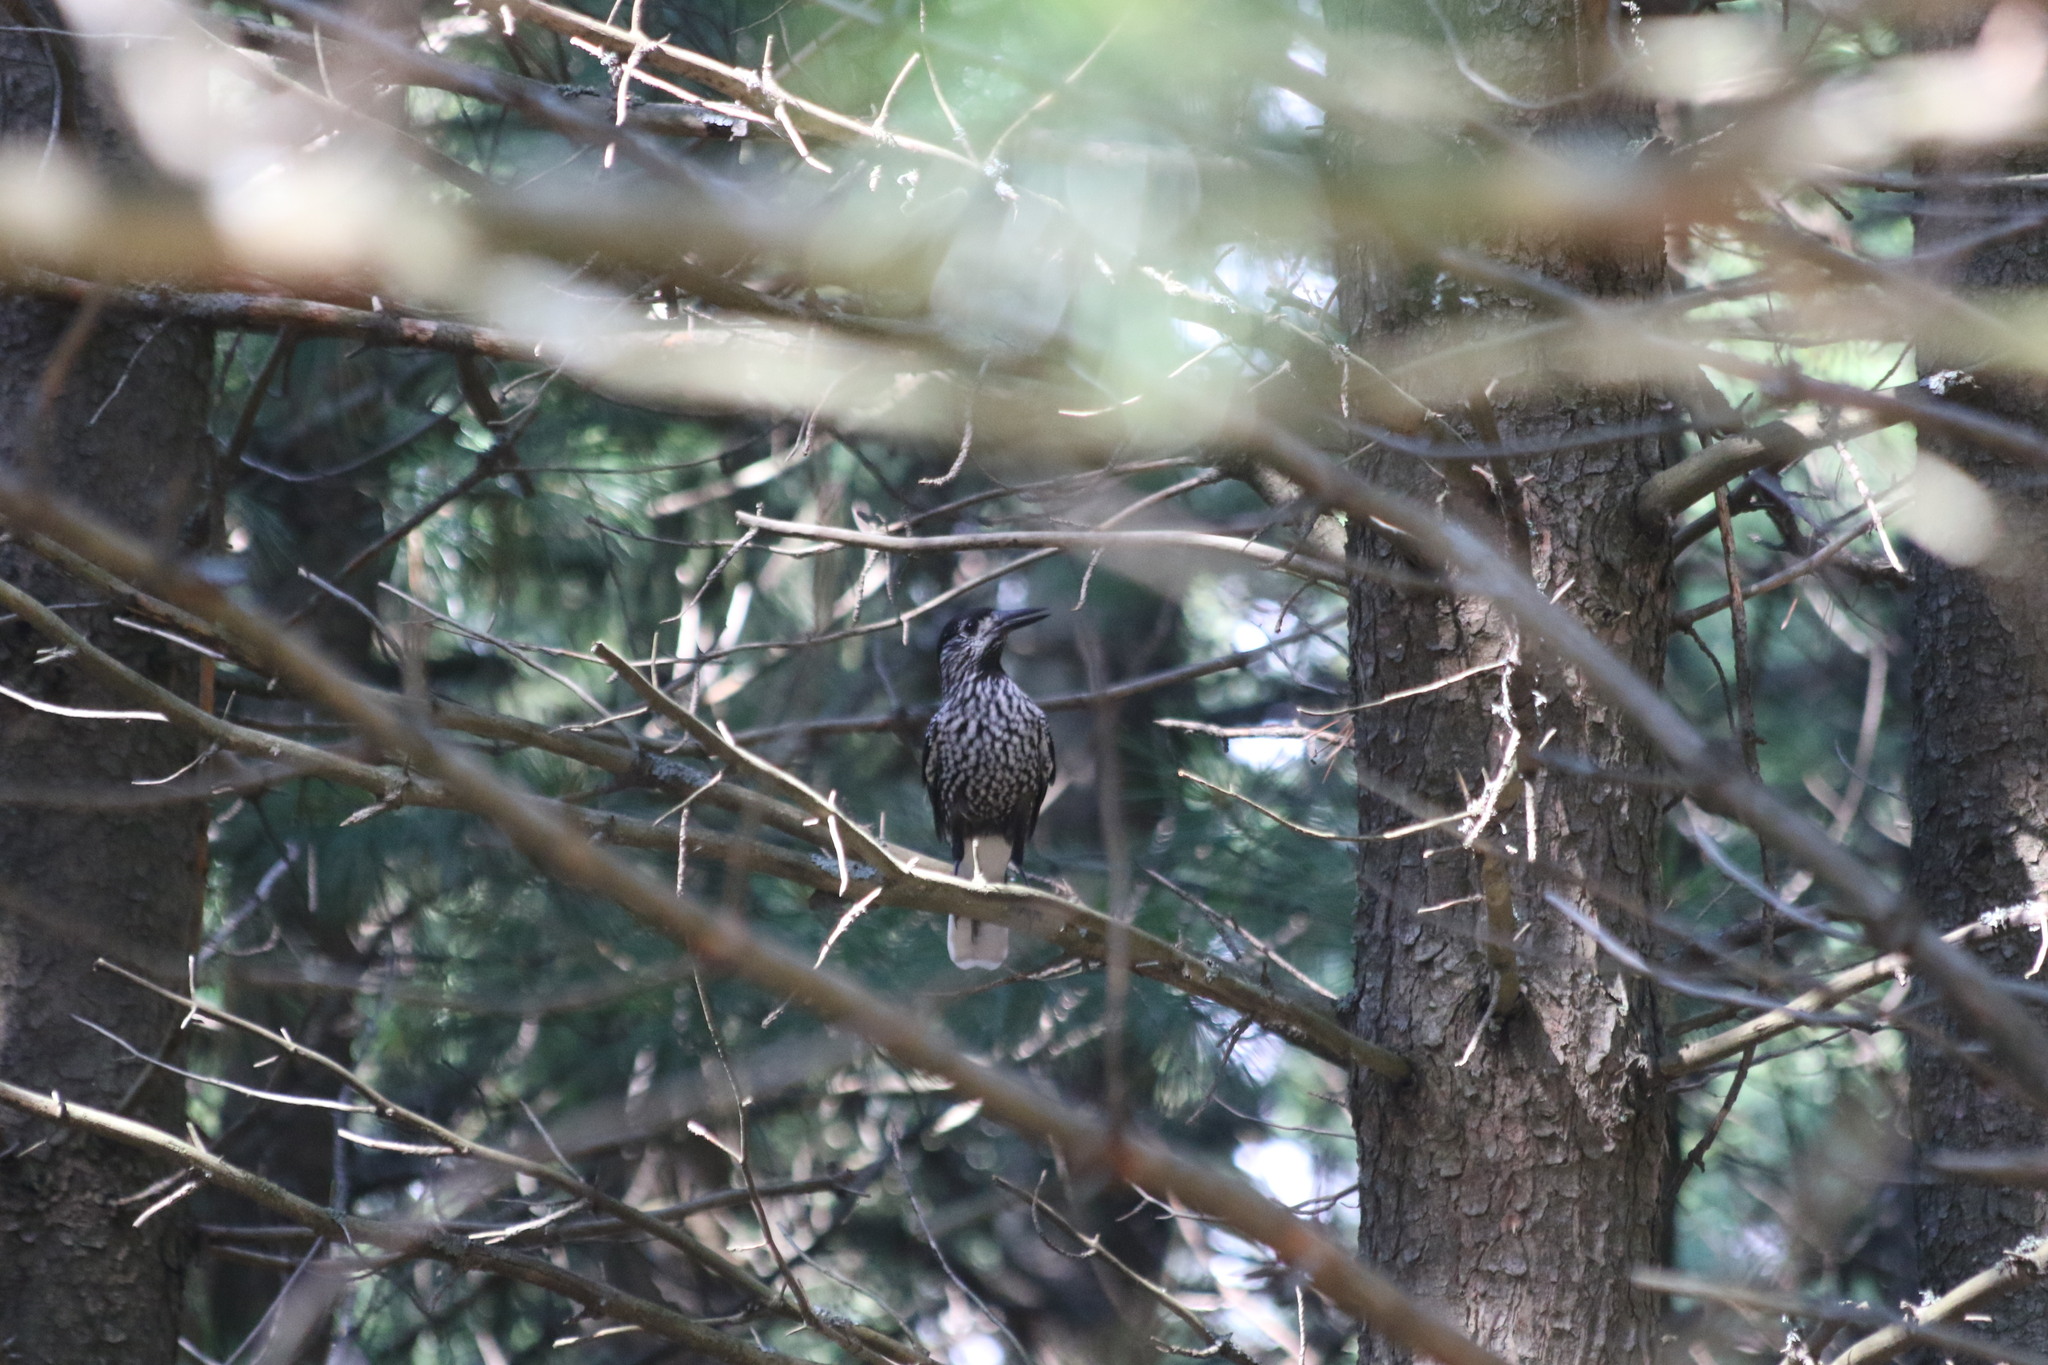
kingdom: Animalia
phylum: Chordata
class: Aves
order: Passeriformes
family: Corvidae
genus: Nucifraga
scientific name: Nucifraga caryocatactes
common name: Spotted nutcracker
